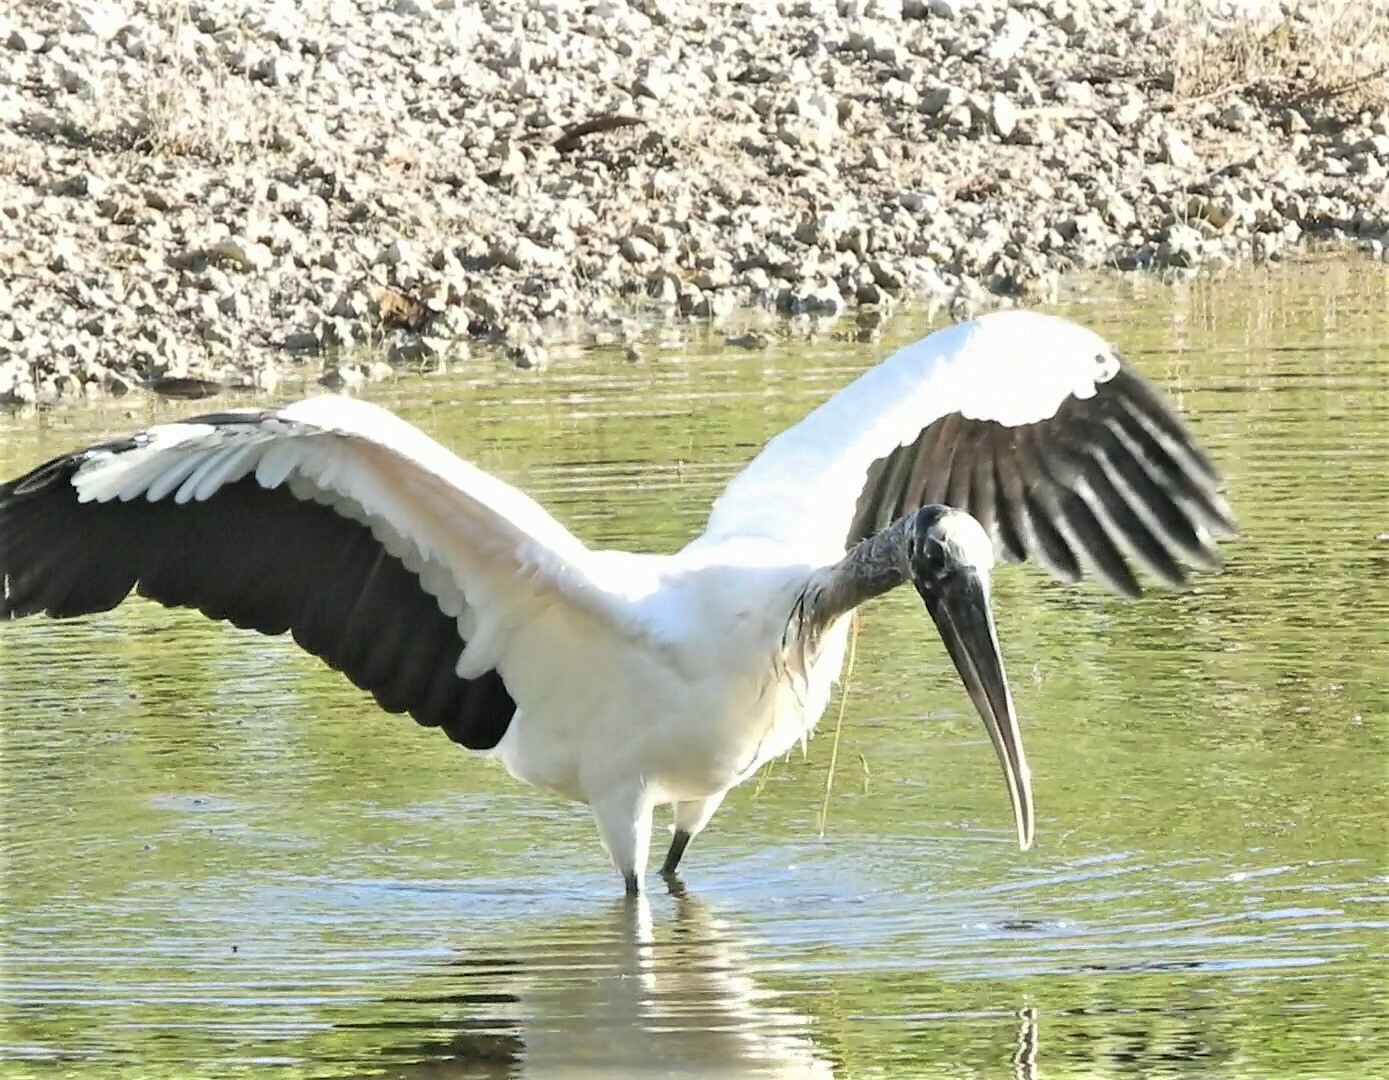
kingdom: Animalia
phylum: Chordata
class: Aves
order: Ciconiiformes
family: Ciconiidae
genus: Mycteria
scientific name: Mycteria americana
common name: Wood stork
